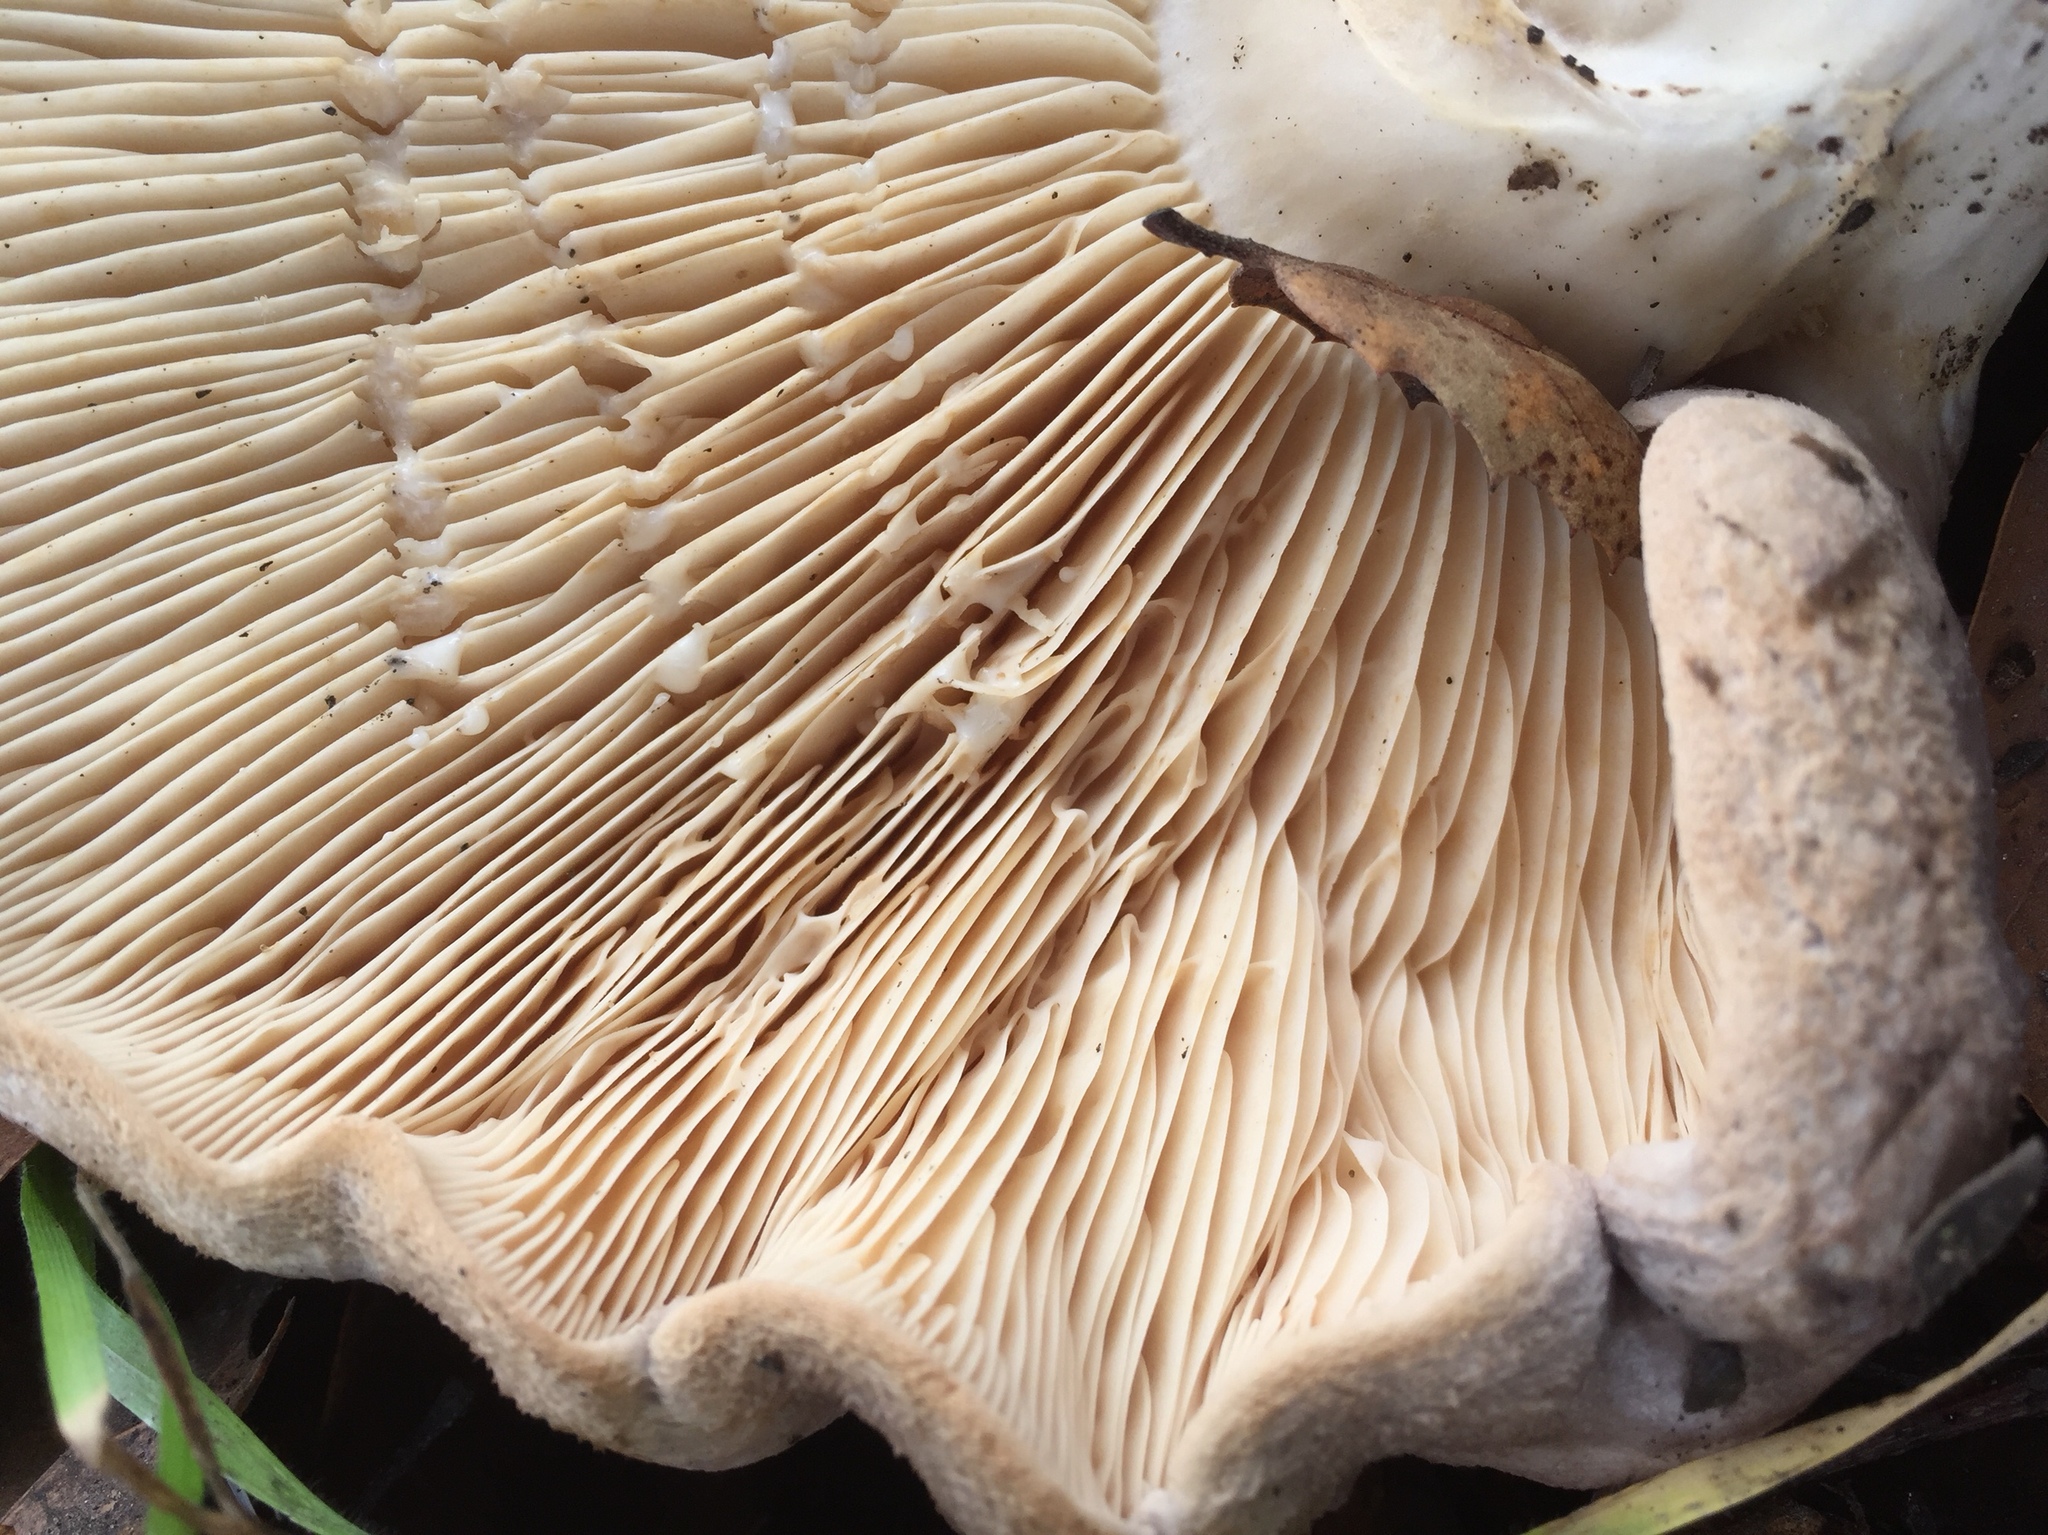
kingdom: Fungi
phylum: Basidiomycota
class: Agaricomycetes
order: Russulales
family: Russulaceae
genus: Lactarius
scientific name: Lactarius argillaceifolius
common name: Clay-gilled milkcap
